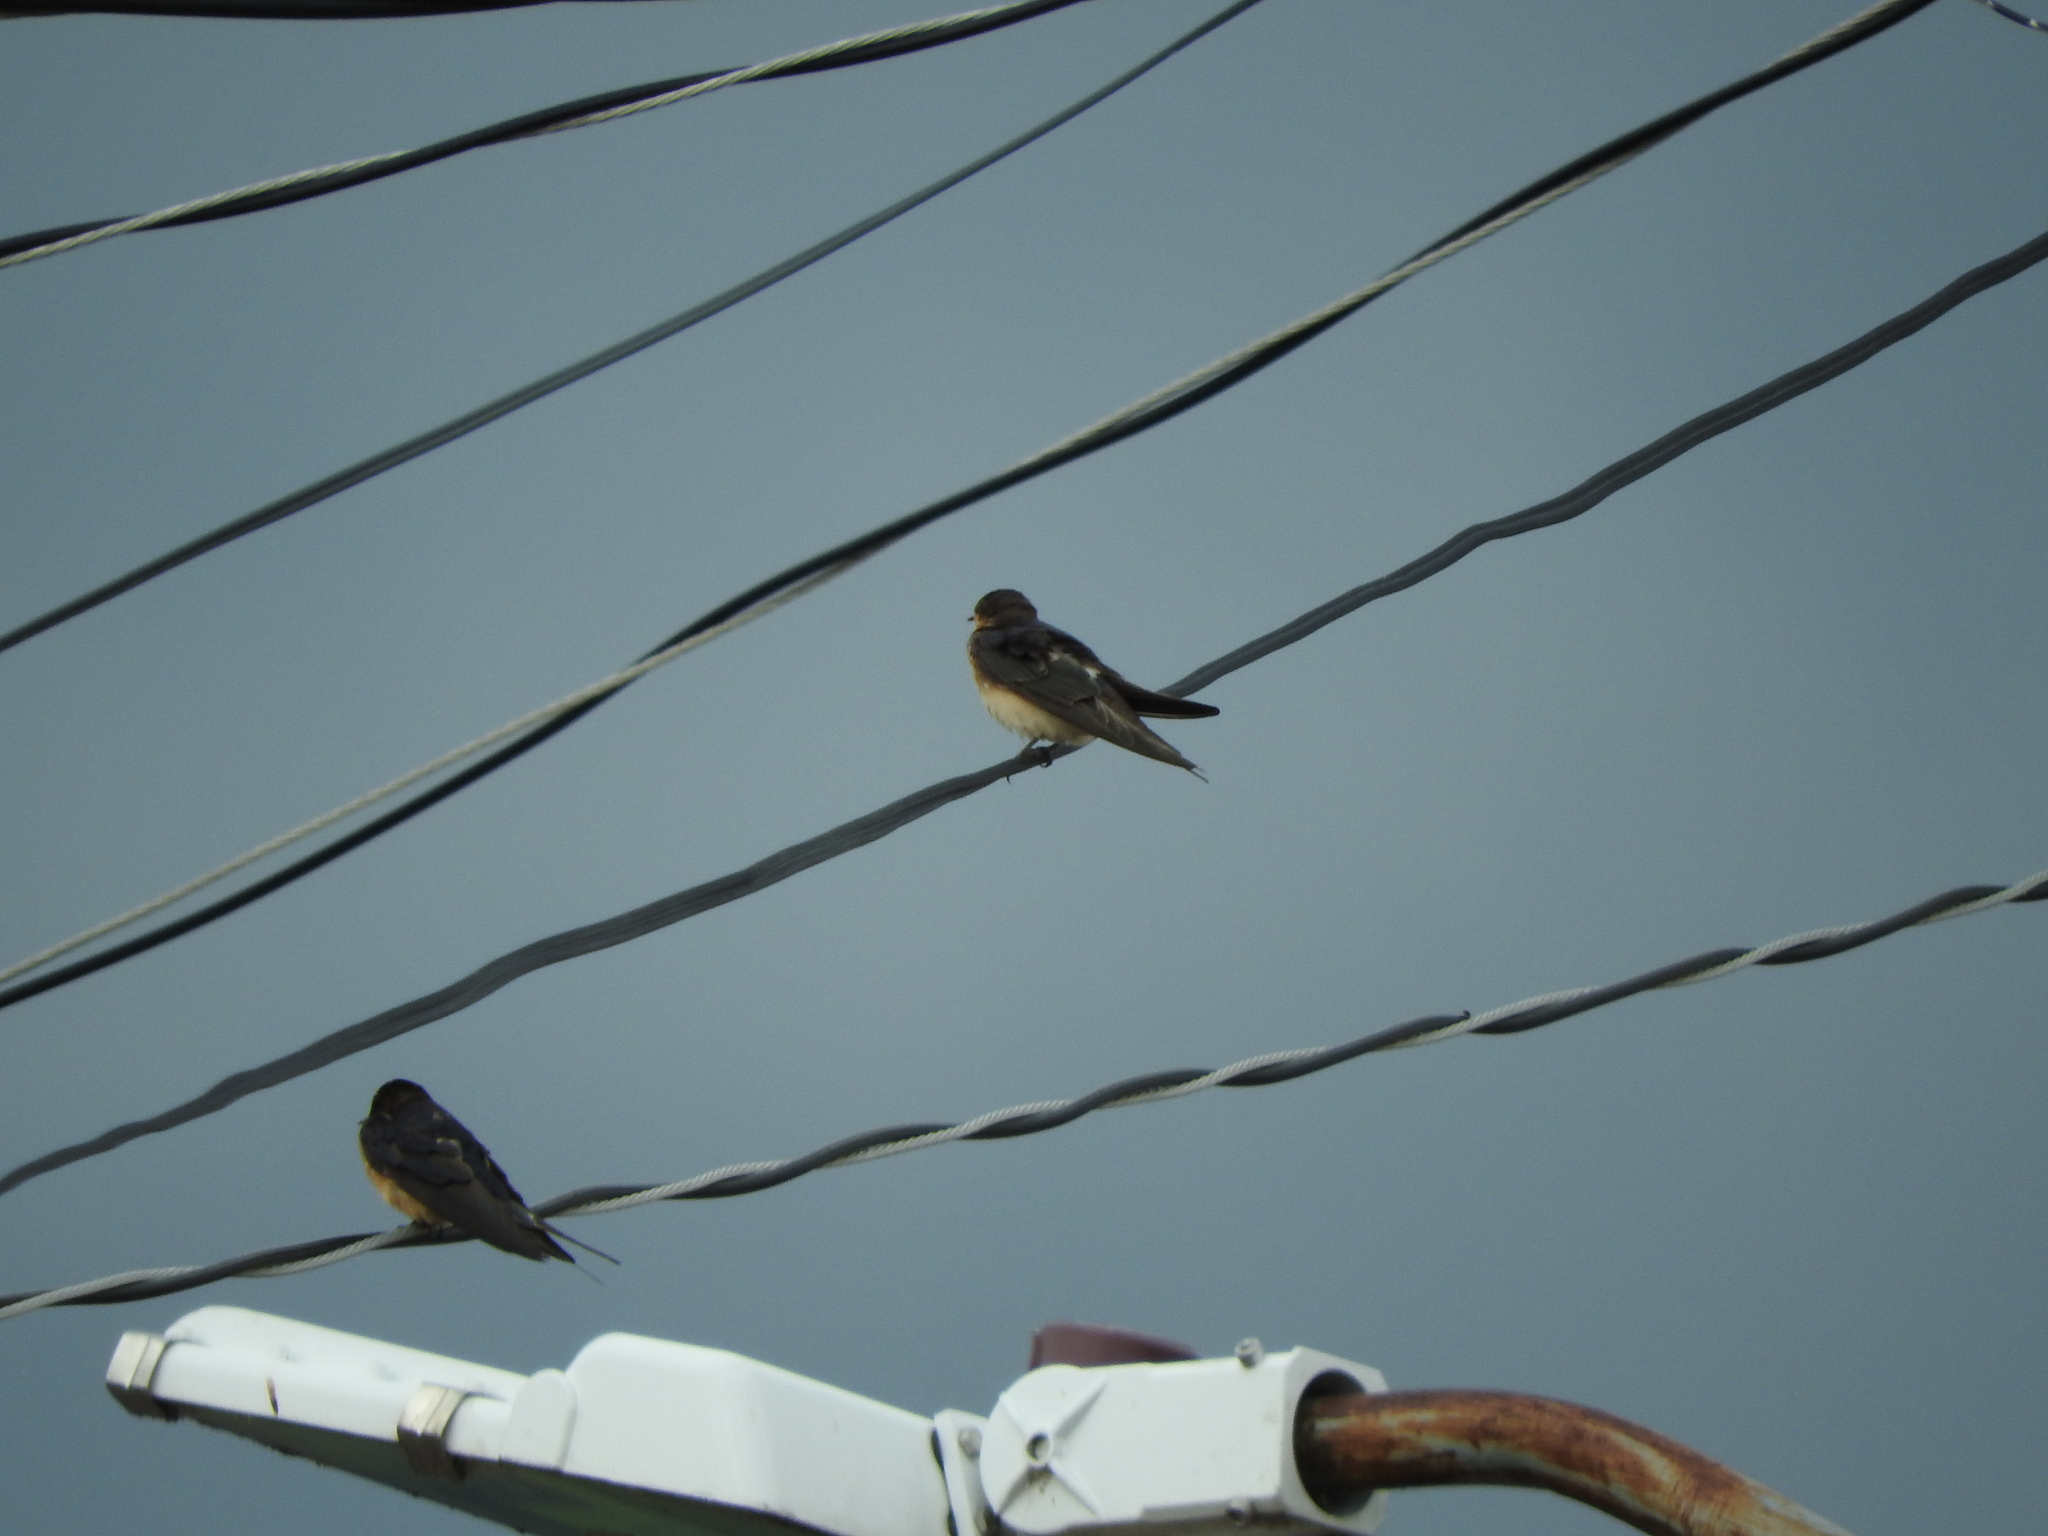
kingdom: Animalia
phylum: Chordata
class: Aves
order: Passeriformes
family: Hirundinidae
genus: Hirundo
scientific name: Hirundo rustica
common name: Barn swallow
